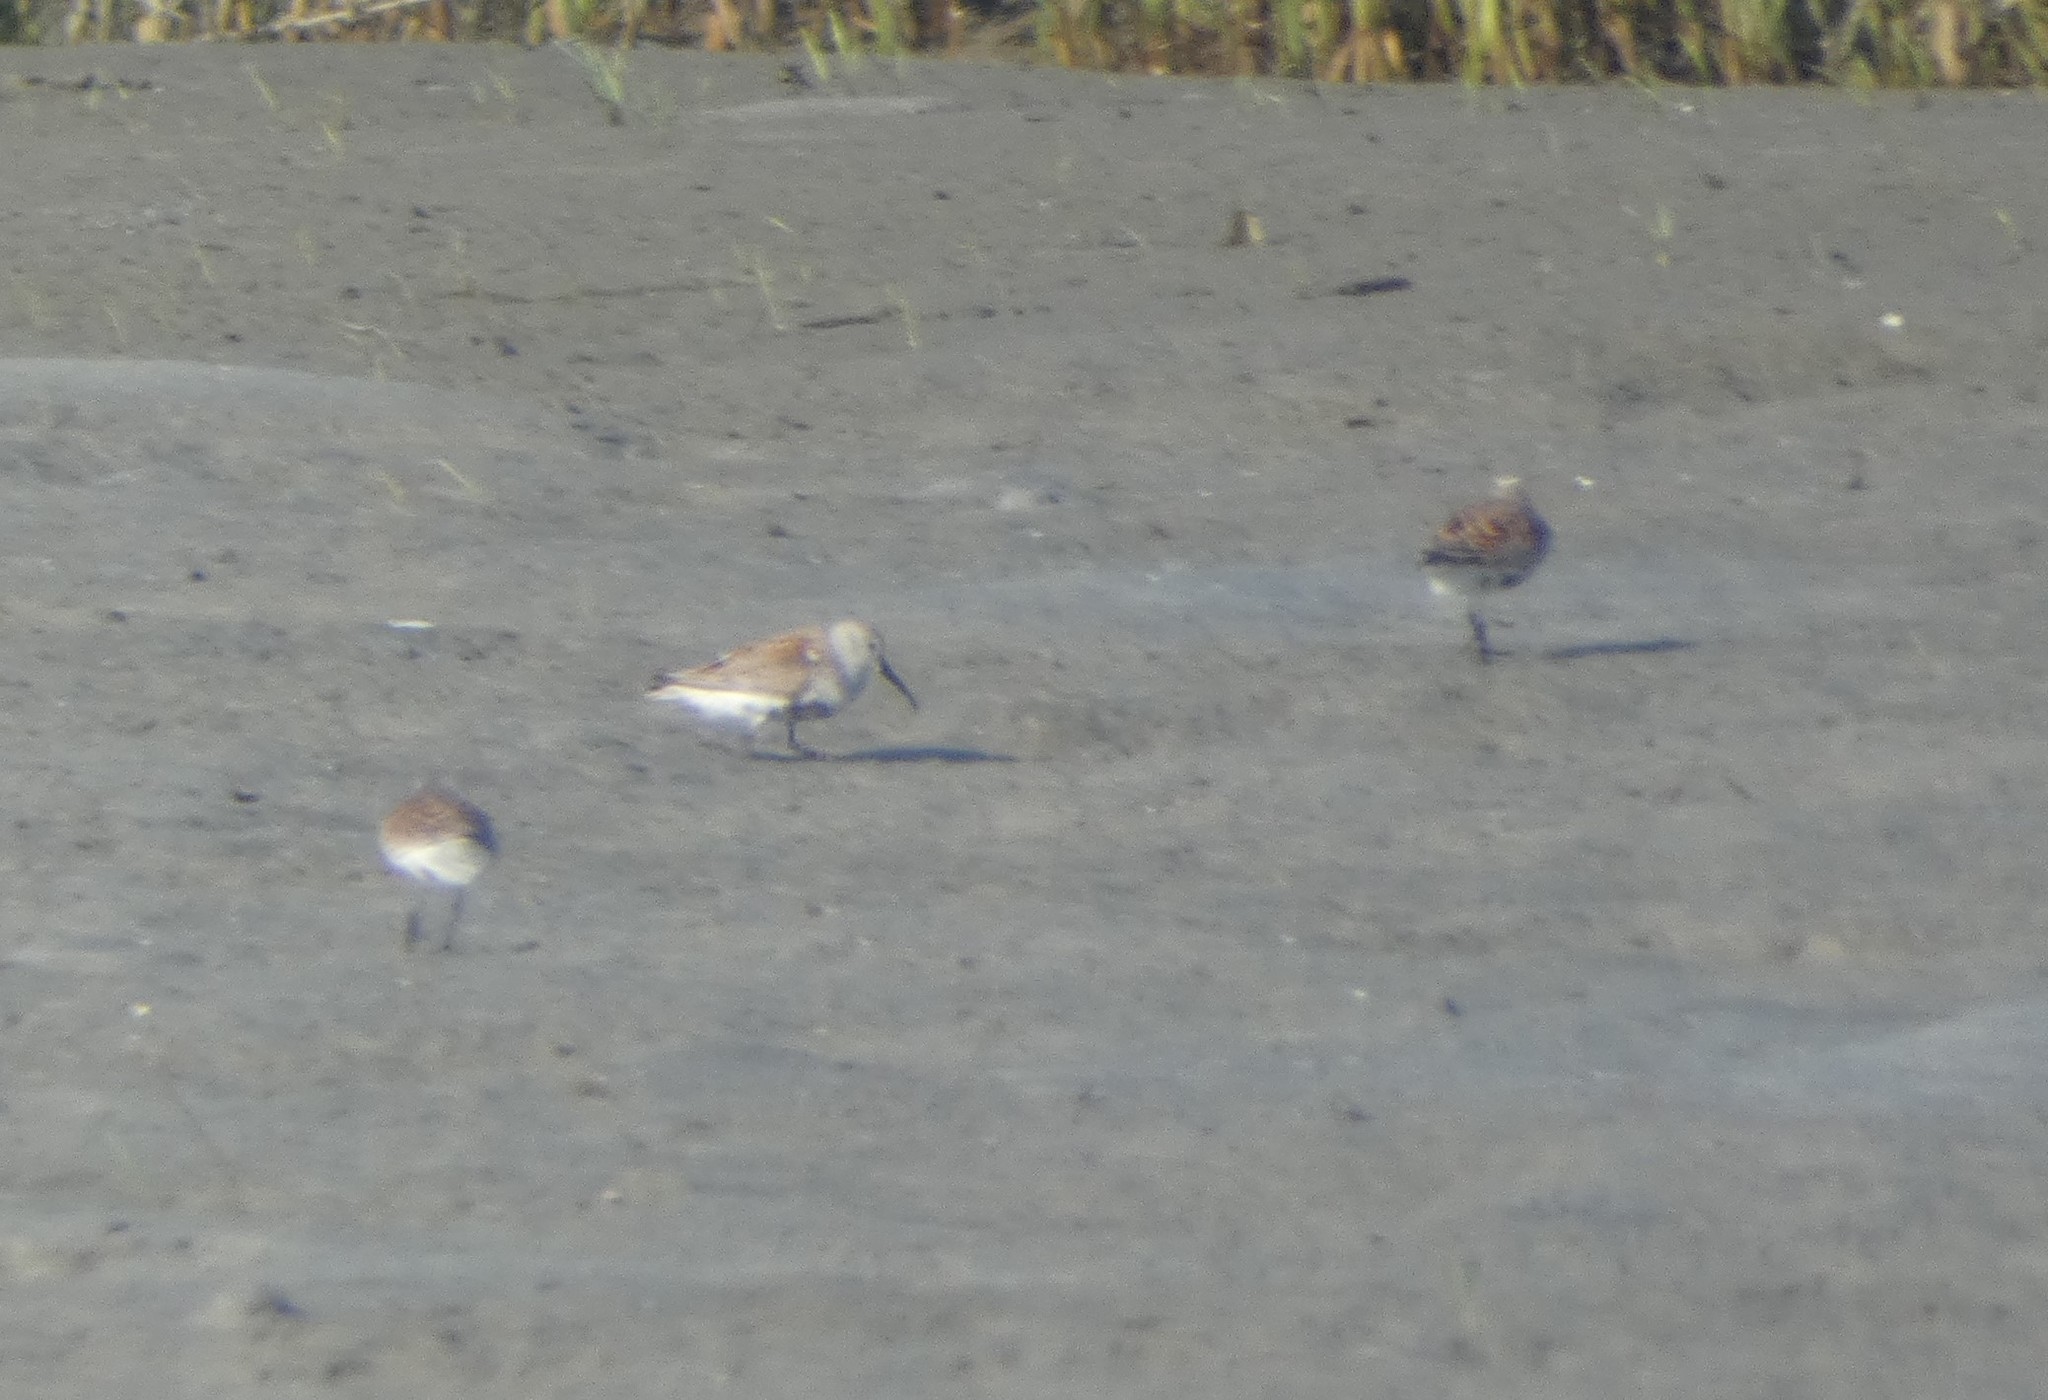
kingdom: Animalia
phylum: Chordata
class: Aves
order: Charadriiformes
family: Scolopacidae
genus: Calidris
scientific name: Calidris alpina
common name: Dunlin
